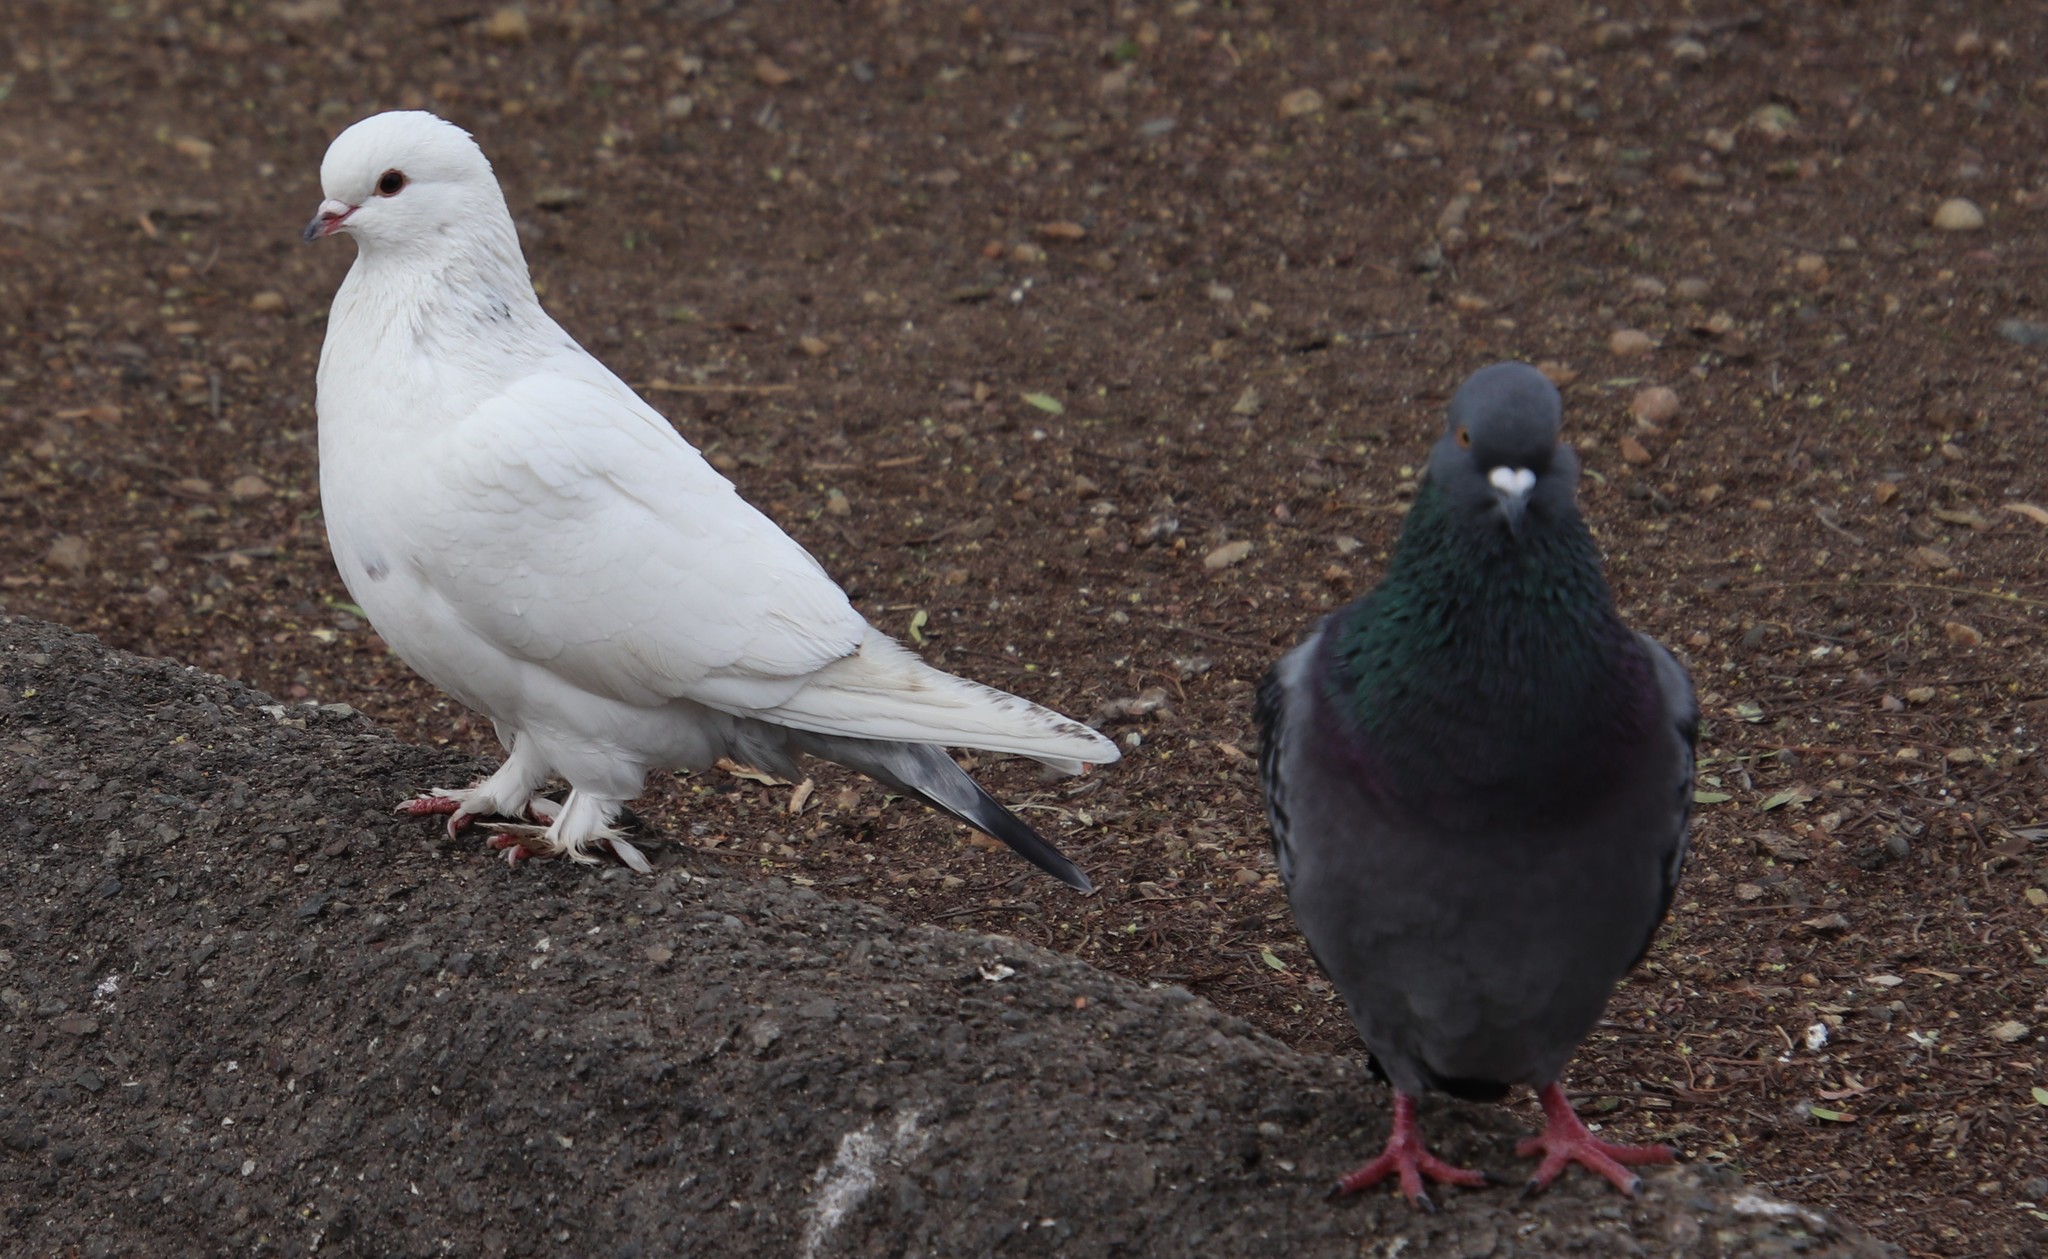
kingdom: Animalia
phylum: Chordata
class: Aves
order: Columbiformes
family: Columbidae
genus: Columba
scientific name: Columba livia
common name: Rock pigeon
